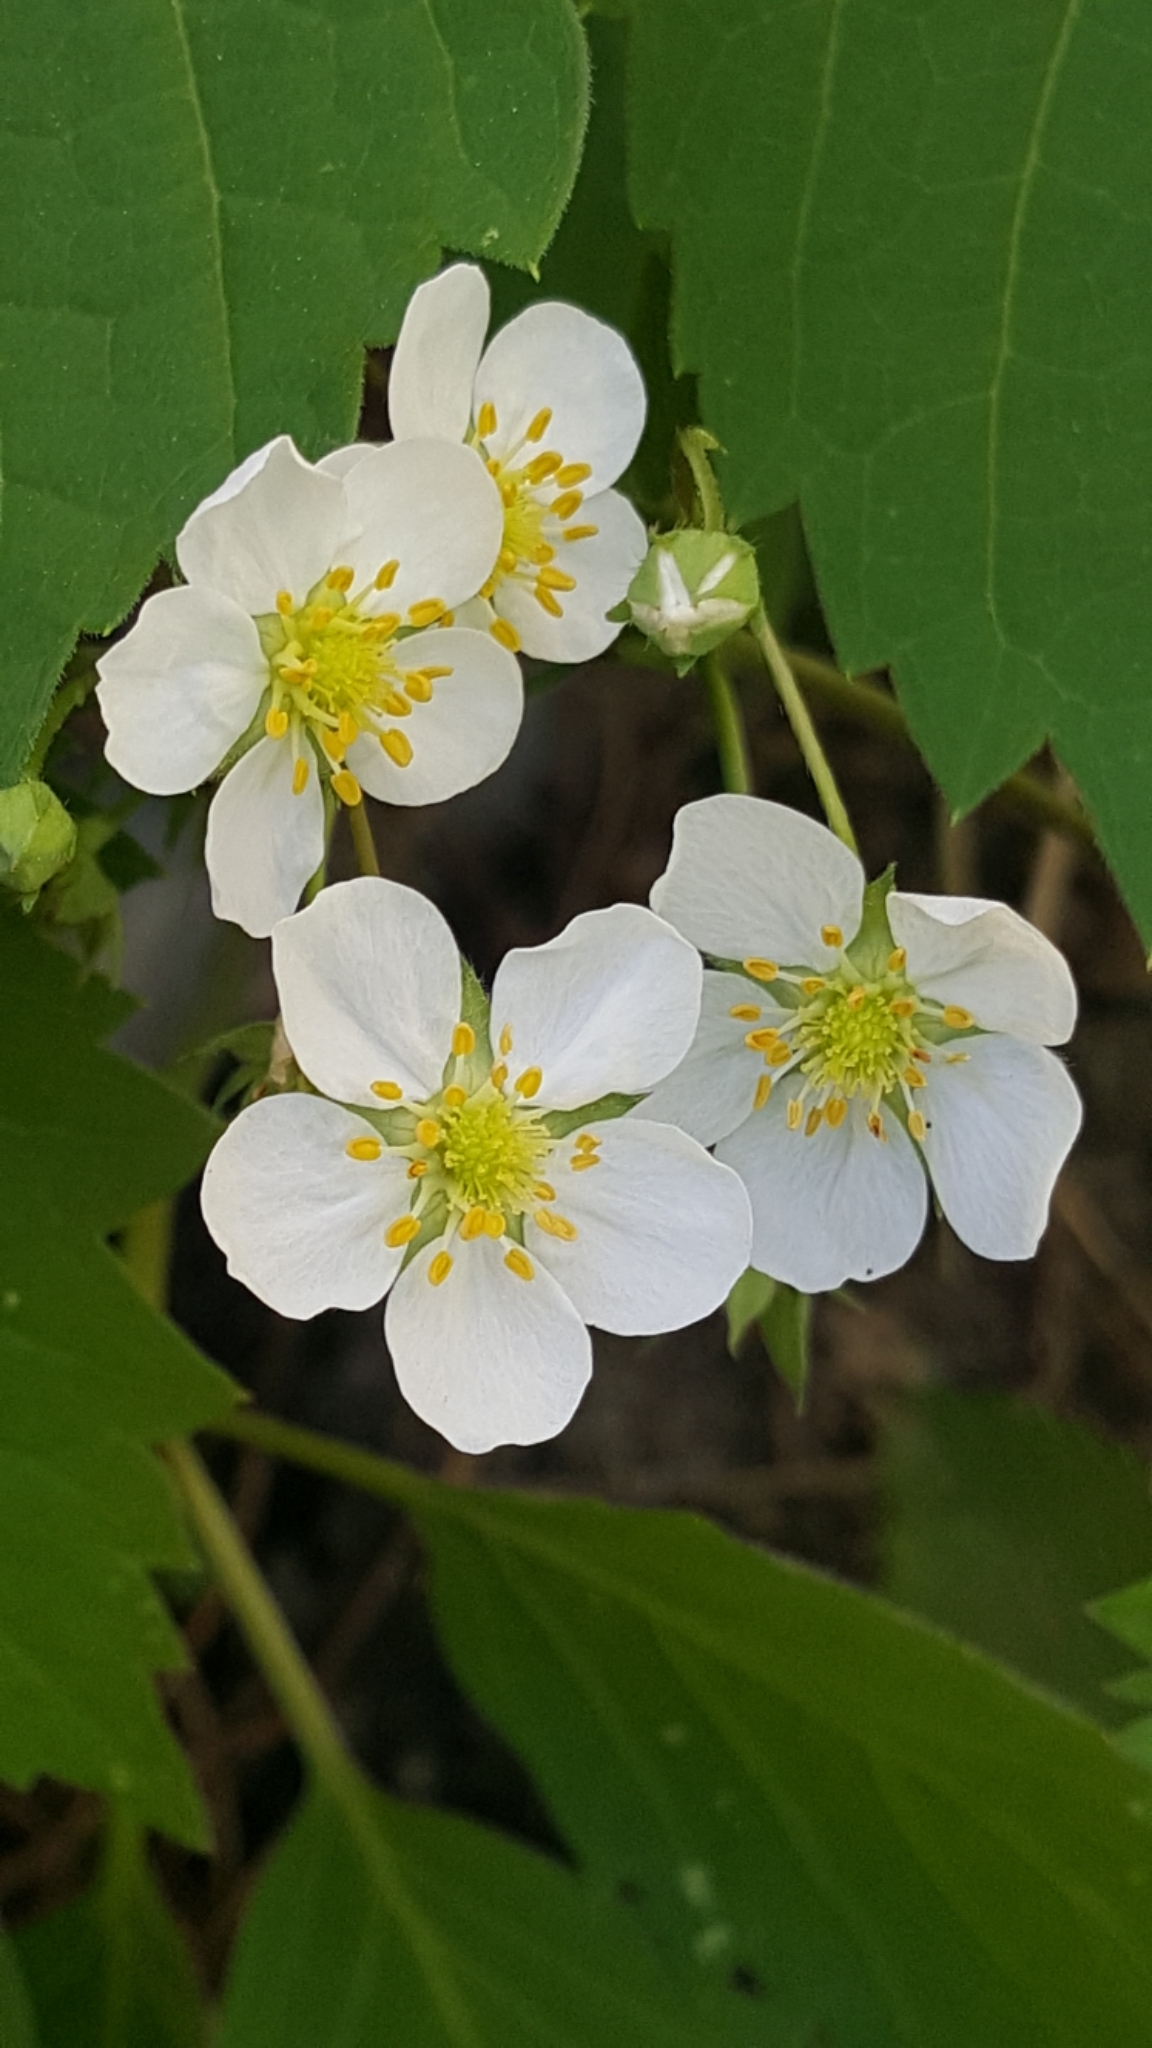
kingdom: Plantae
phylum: Tracheophyta
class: Magnoliopsida
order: Rosales
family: Rosaceae
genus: Fragaria
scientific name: Fragaria virginiana
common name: Thickleaved wild strawberry
